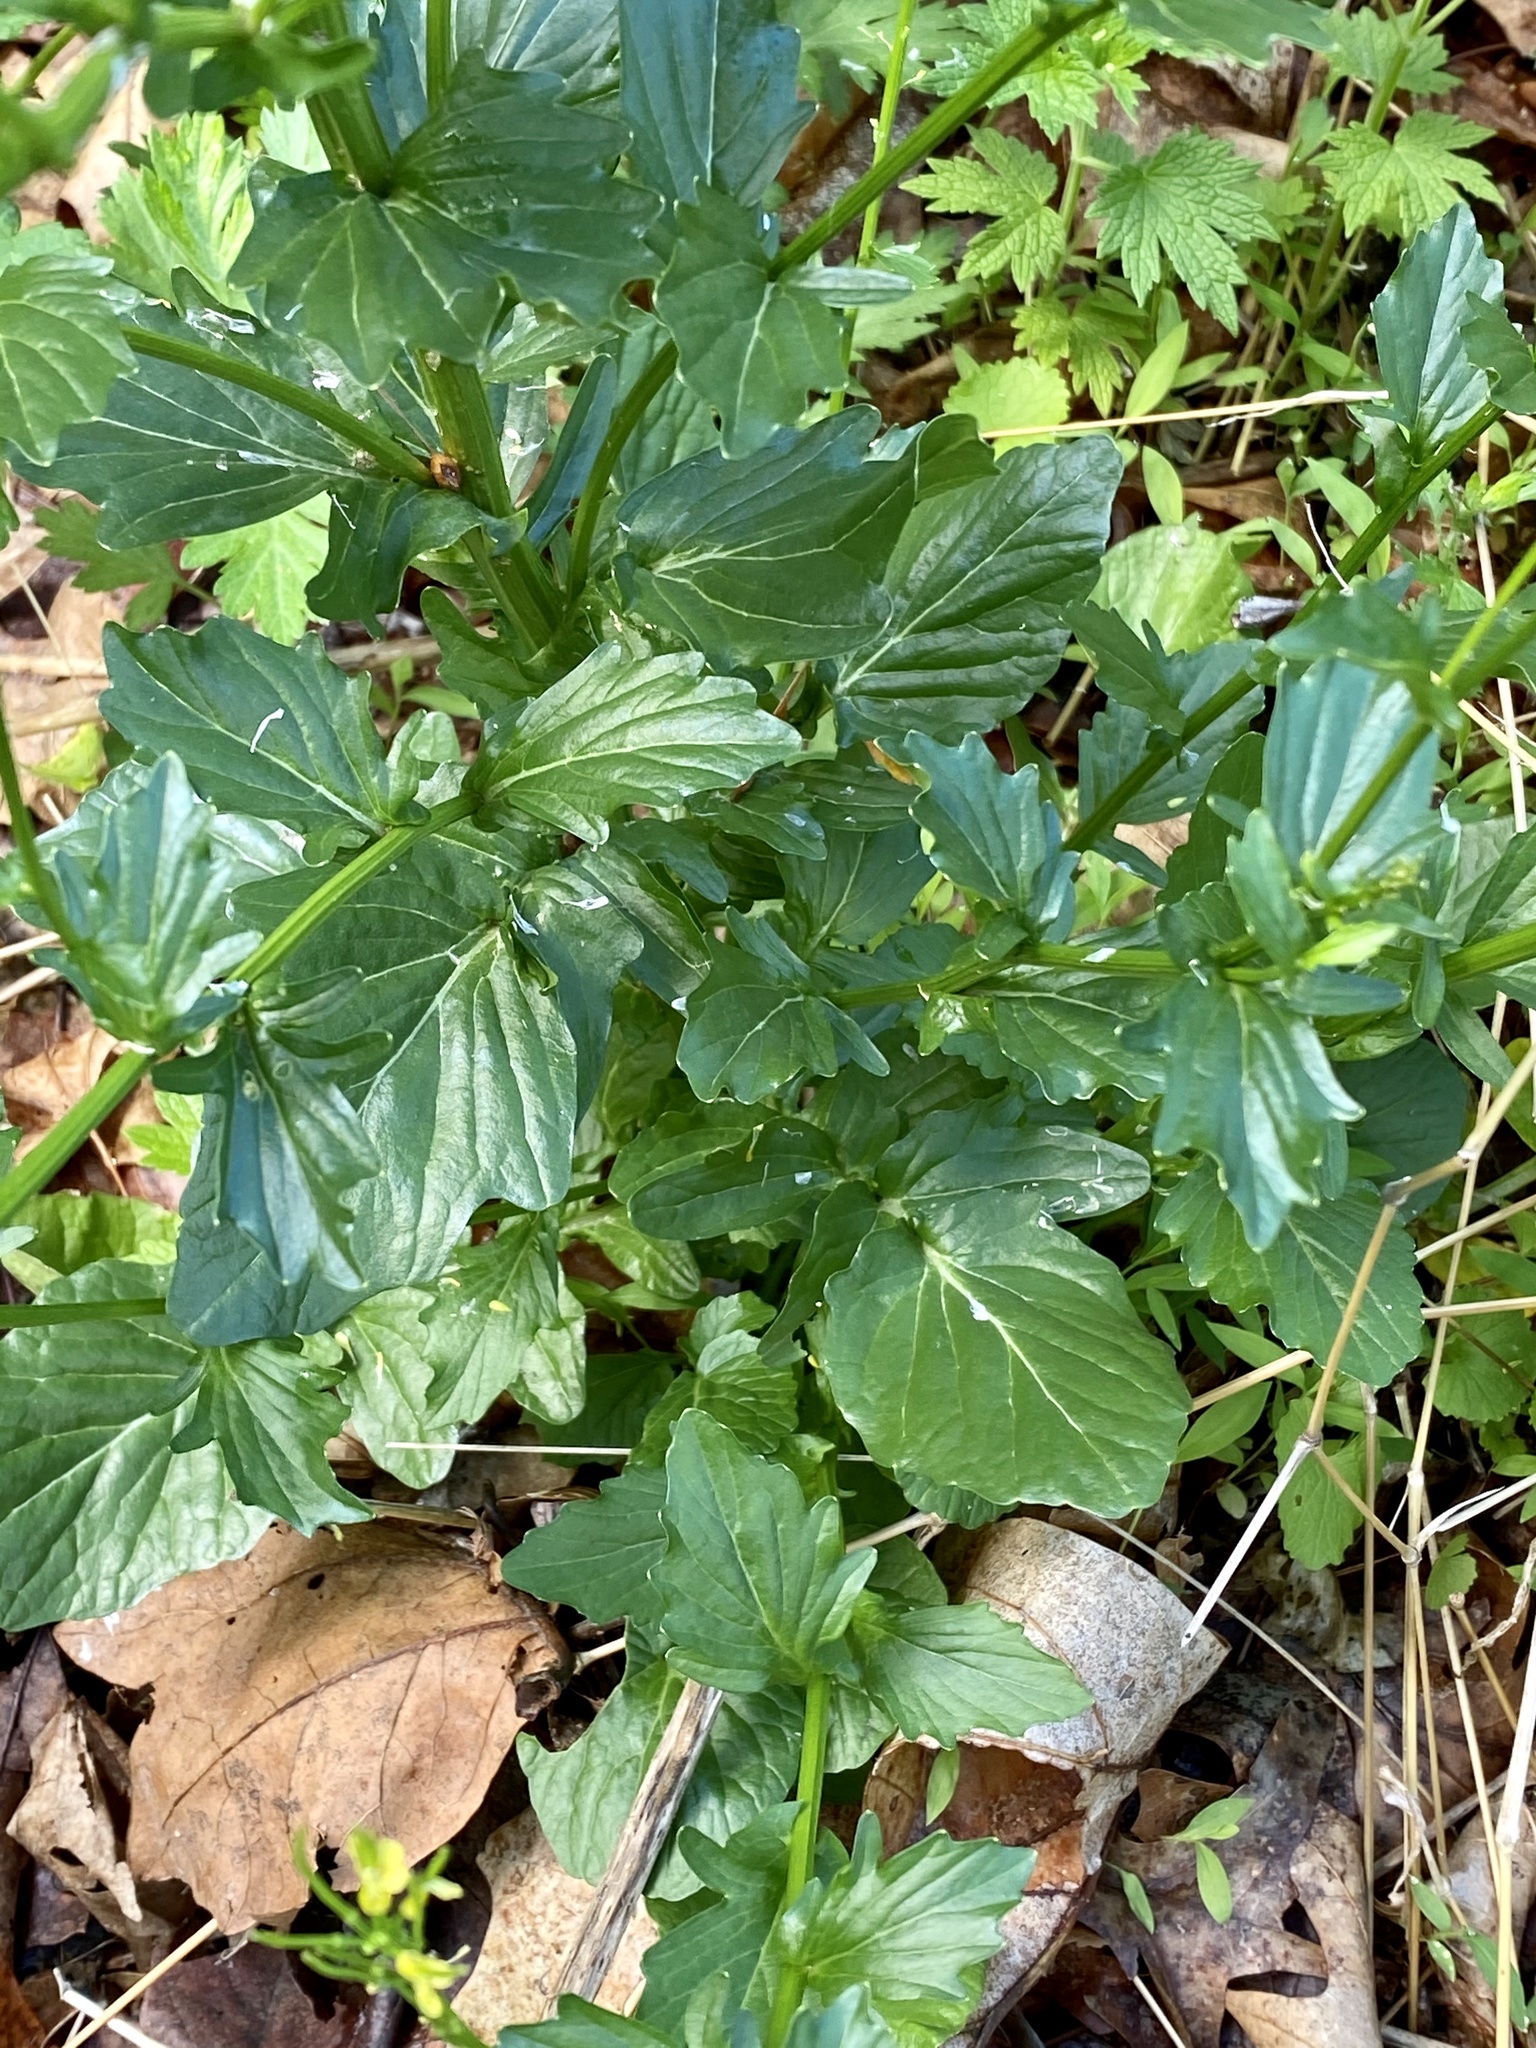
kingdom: Plantae
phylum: Tracheophyta
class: Magnoliopsida
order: Brassicales
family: Brassicaceae
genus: Barbarea
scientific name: Barbarea vulgaris
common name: Cressy-greens
